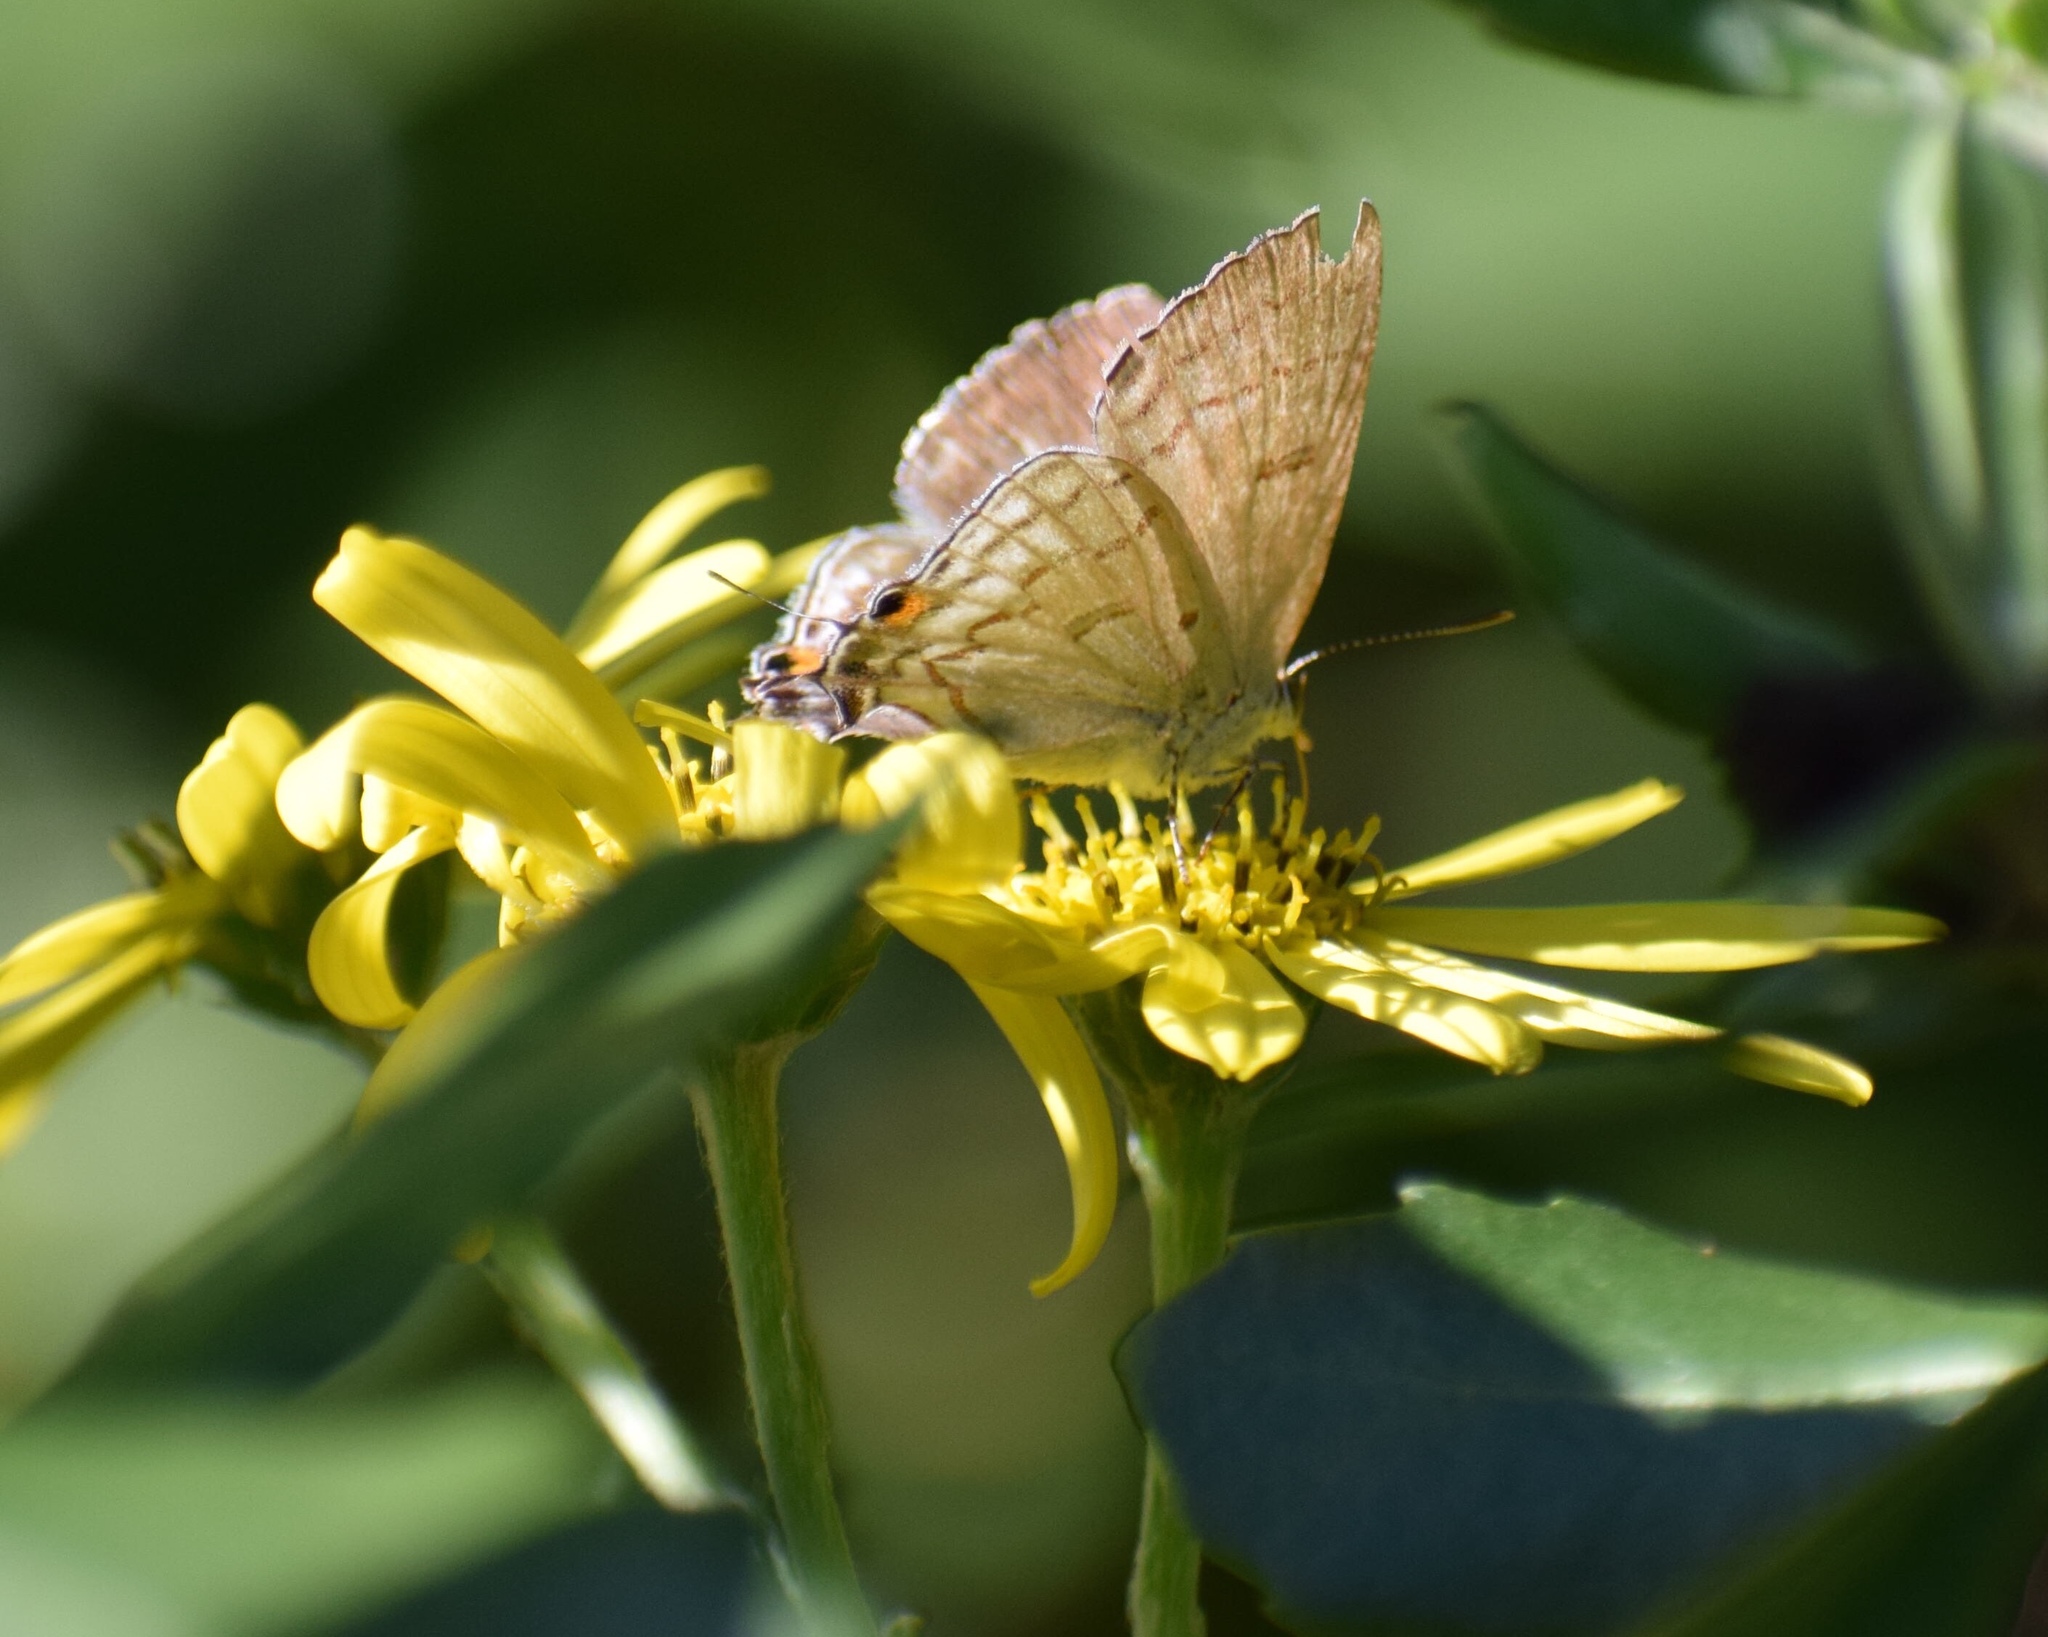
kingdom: Animalia
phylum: Arthropoda
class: Insecta
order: Lepidoptera
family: Lycaenidae
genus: Hypolycaena
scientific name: Hypolycaena philippus
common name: Common hairstreak
